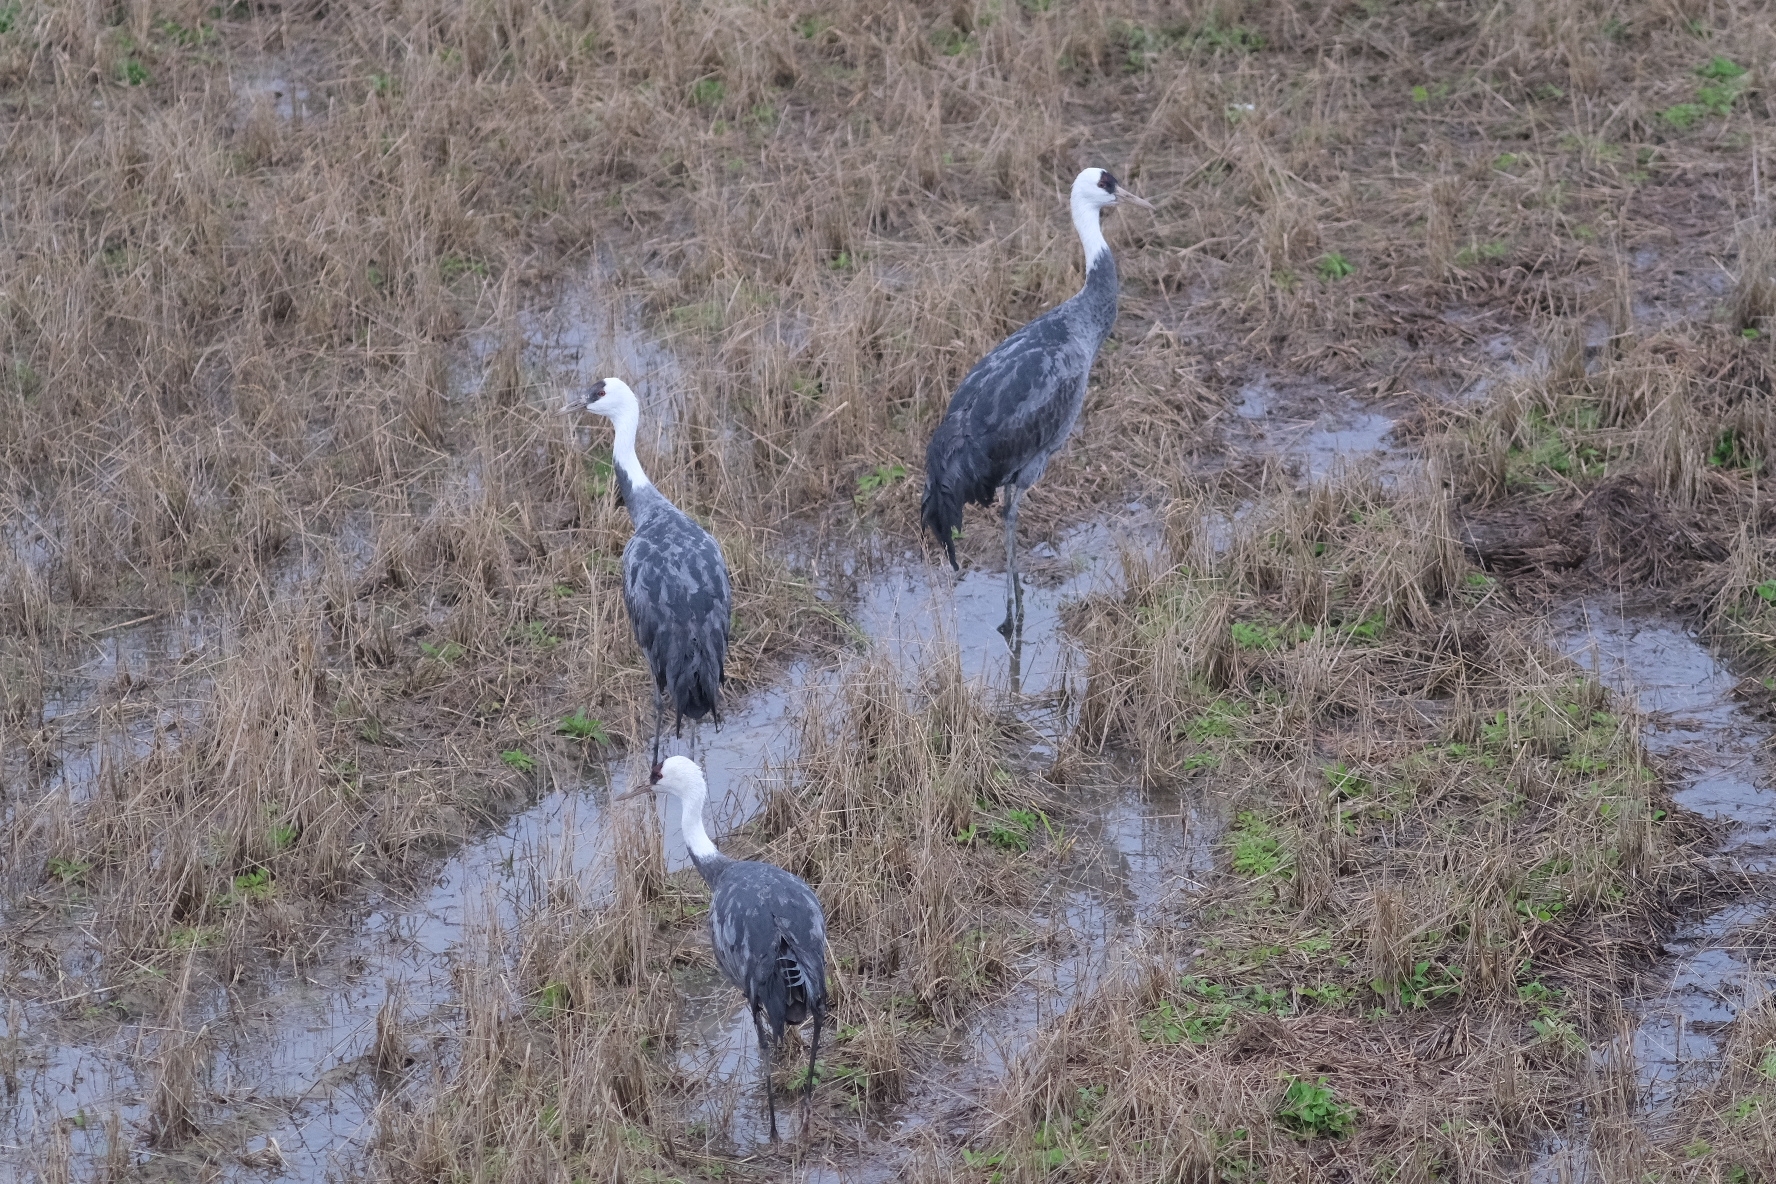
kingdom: Animalia
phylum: Chordata
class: Aves
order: Gruiformes
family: Gruidae
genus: Grus
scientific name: Grus monacha
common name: Hooded crane
